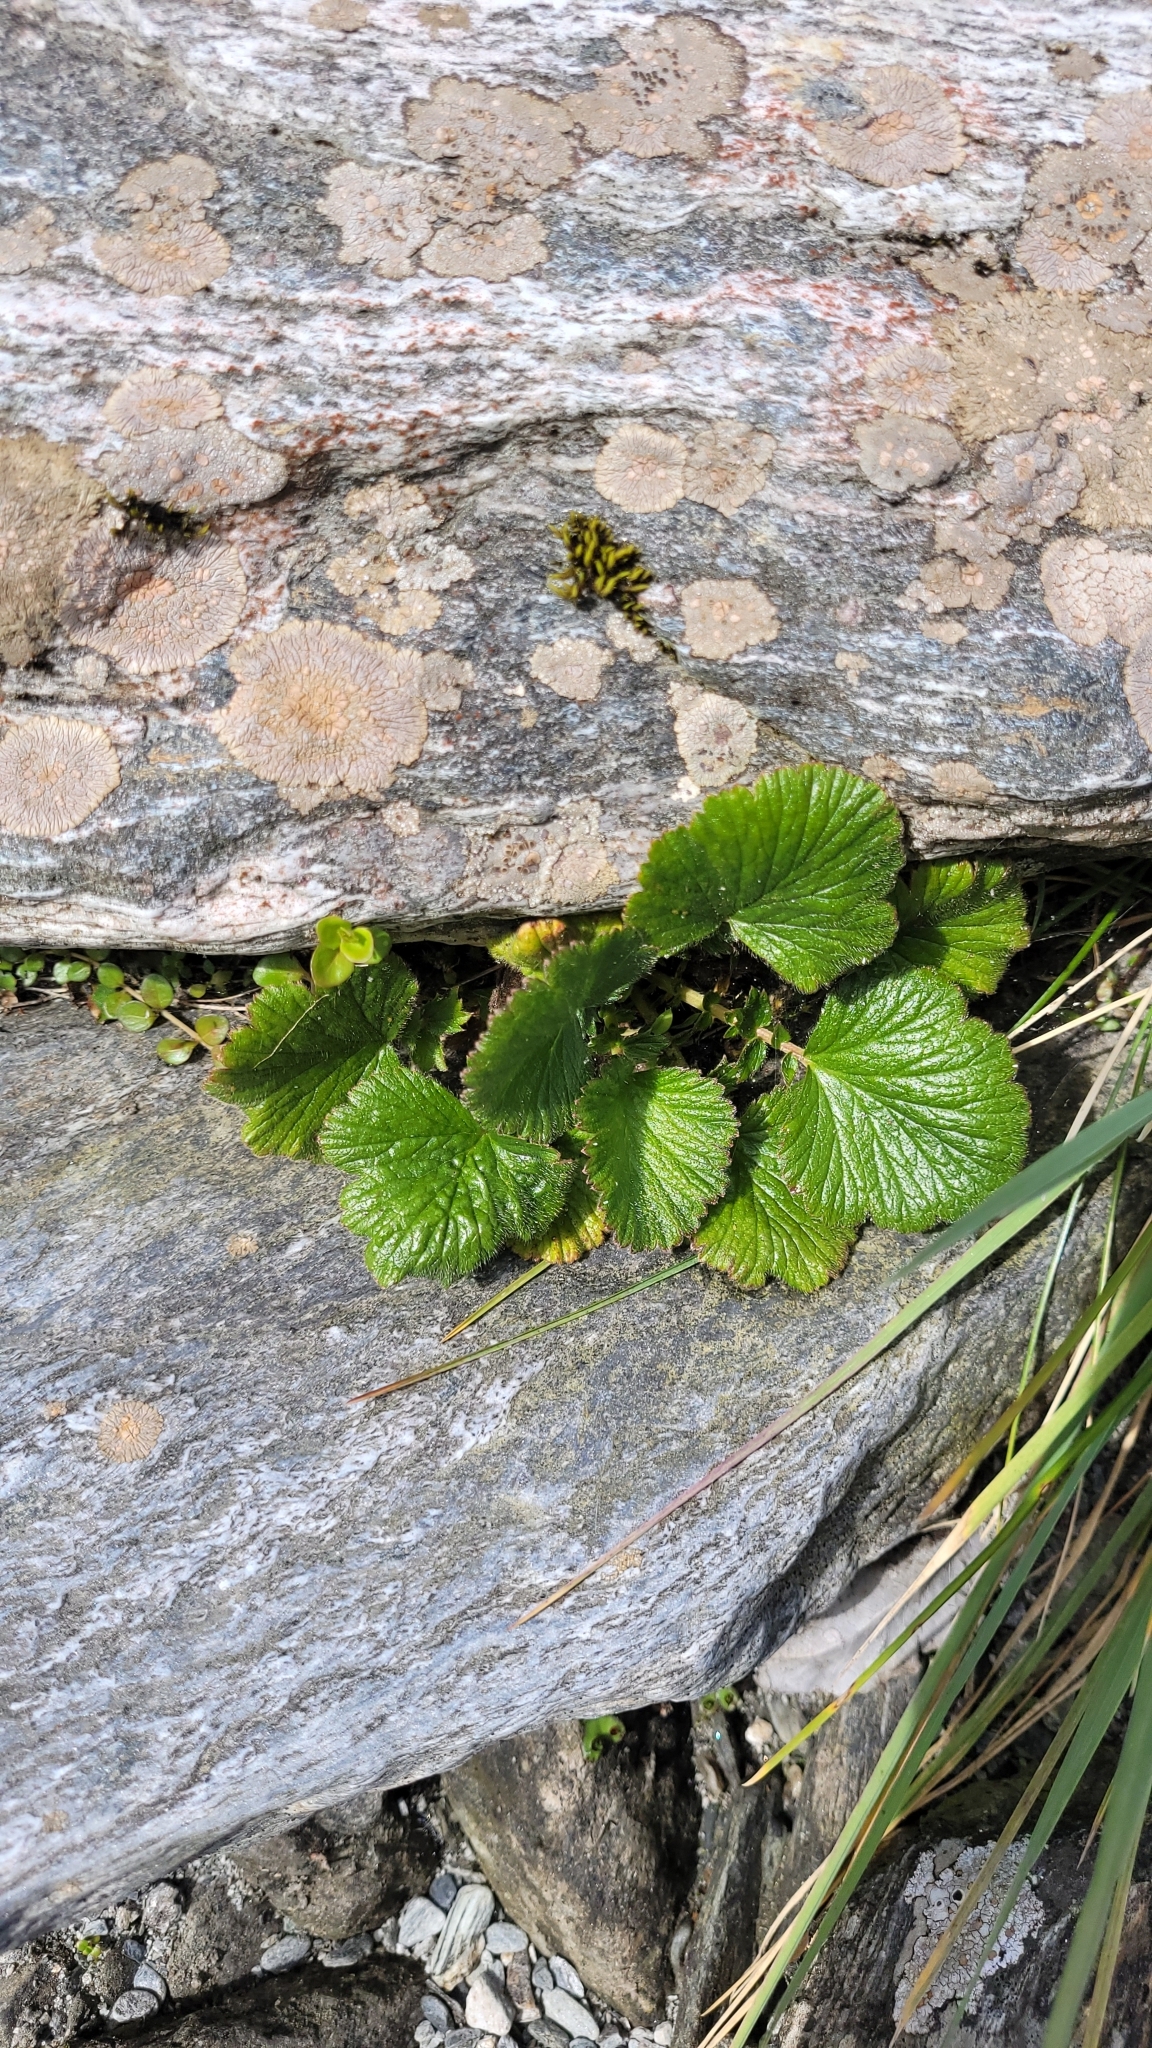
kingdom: Plantae
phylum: Tracheophyta
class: Magnoliopsida
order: Rosales
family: Rosaceae
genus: Geum
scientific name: Geum cockaynei
